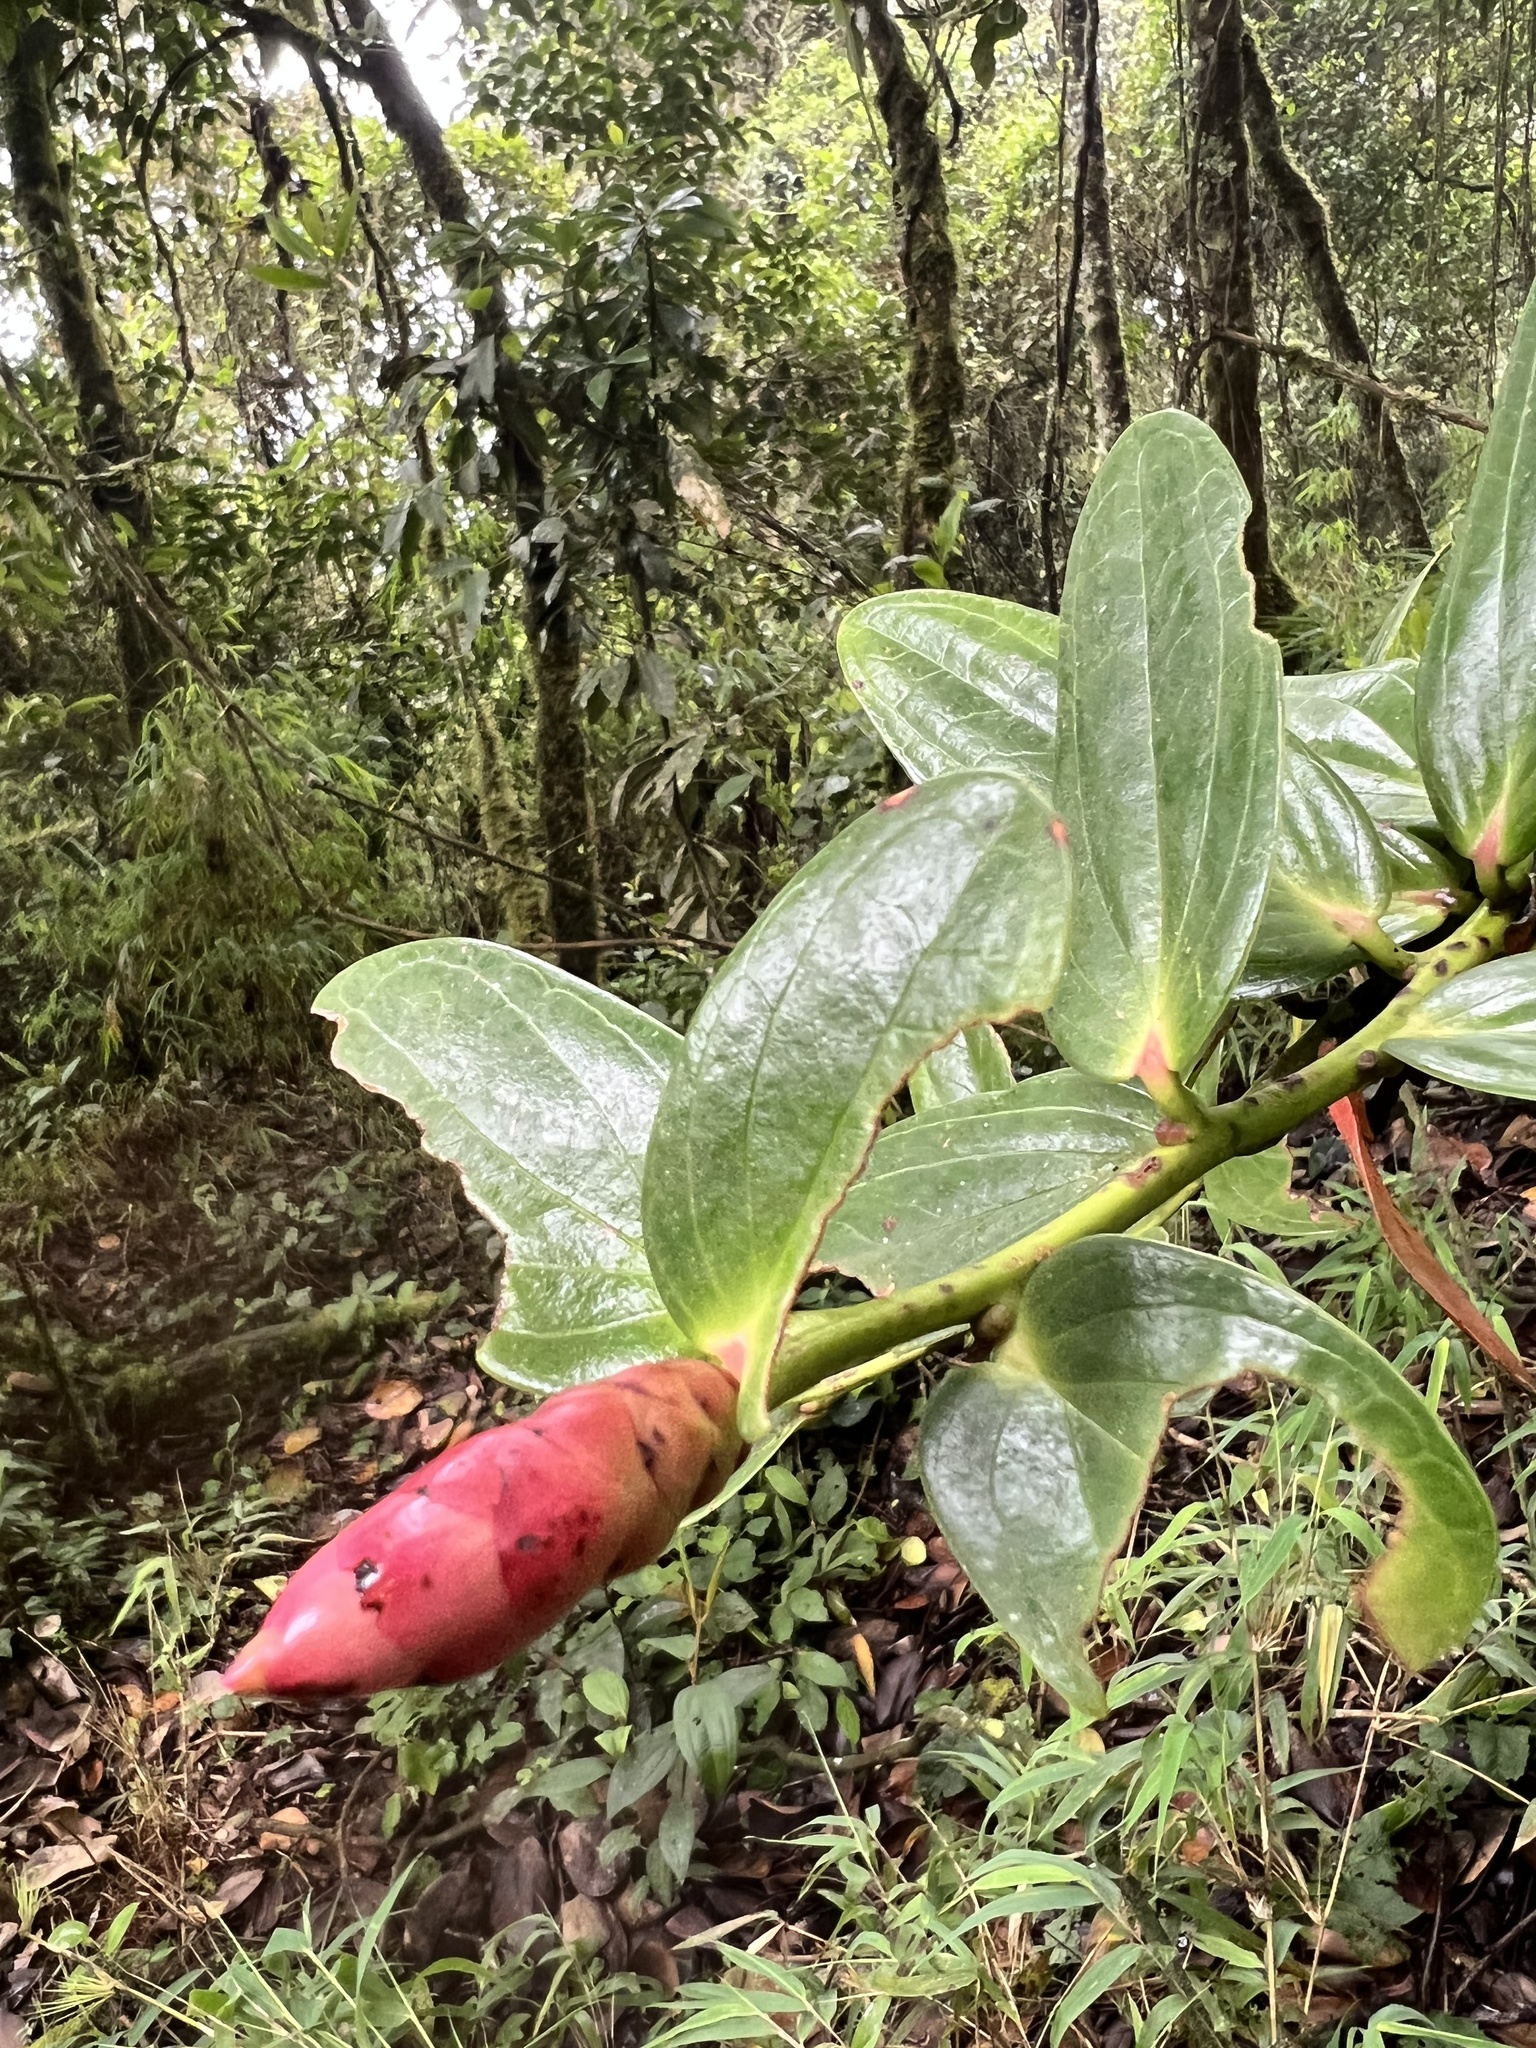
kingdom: Plantae
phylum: Tracheophyta
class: Magnoliopsida
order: Ericales
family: Ericaceae
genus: Cavendishia
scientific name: Cavendishia nitida
